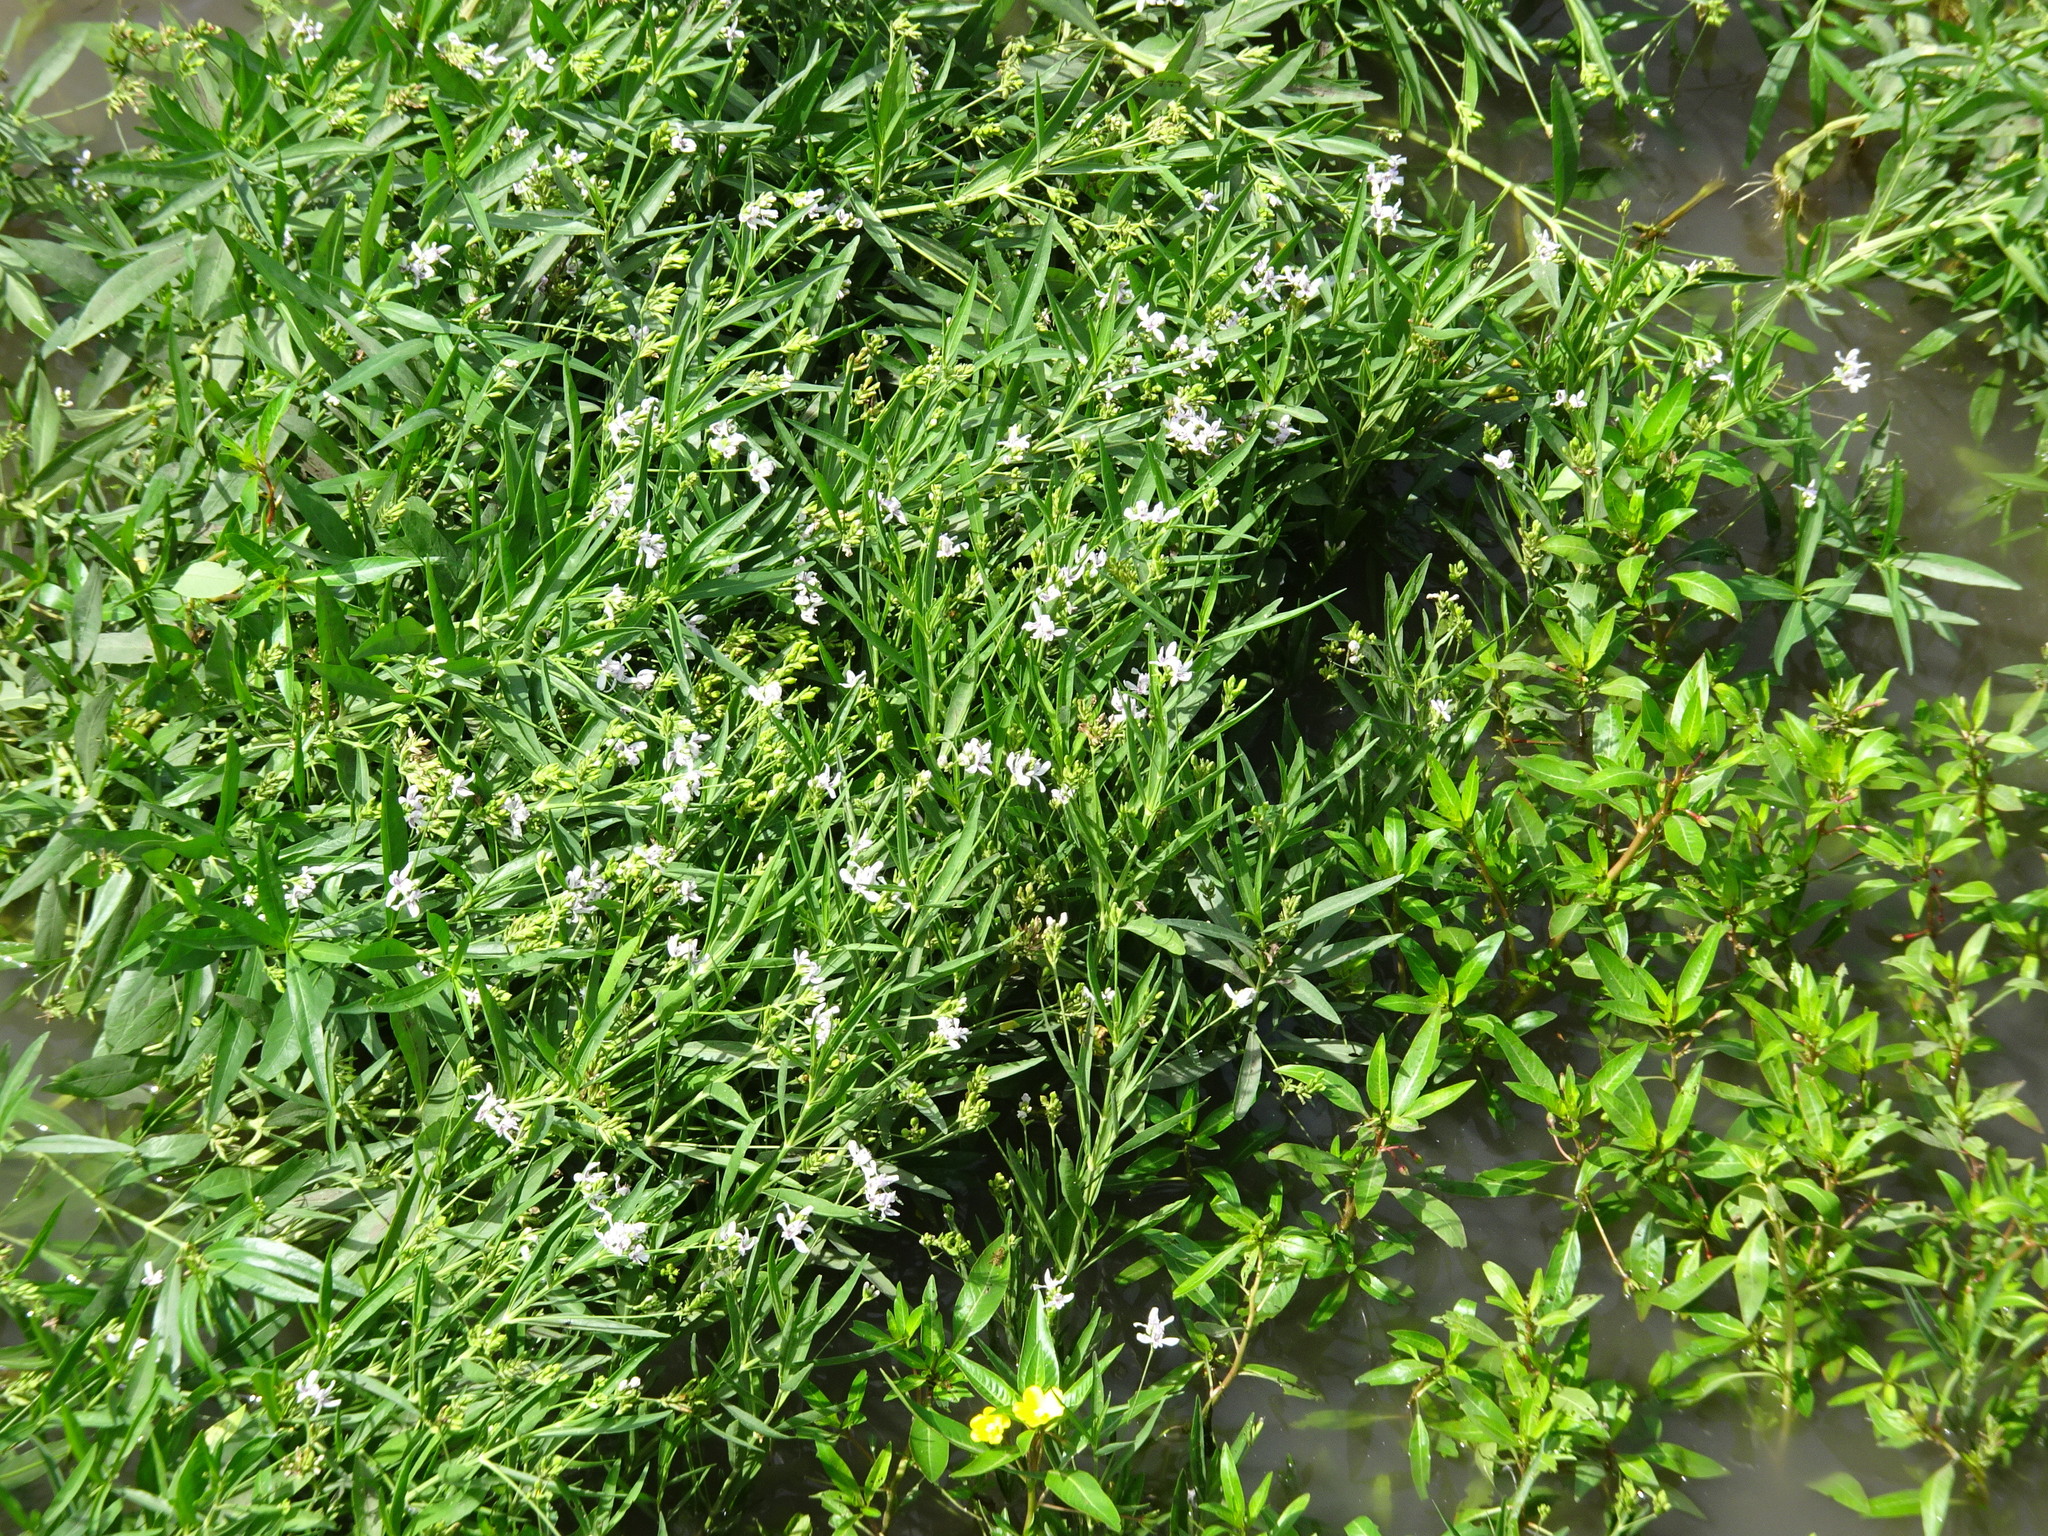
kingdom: Plantae
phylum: Tracheophyta
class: Magnoliopsida
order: Lamiales
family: Acanthaceae
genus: Dianthera
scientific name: Dianthera americana
